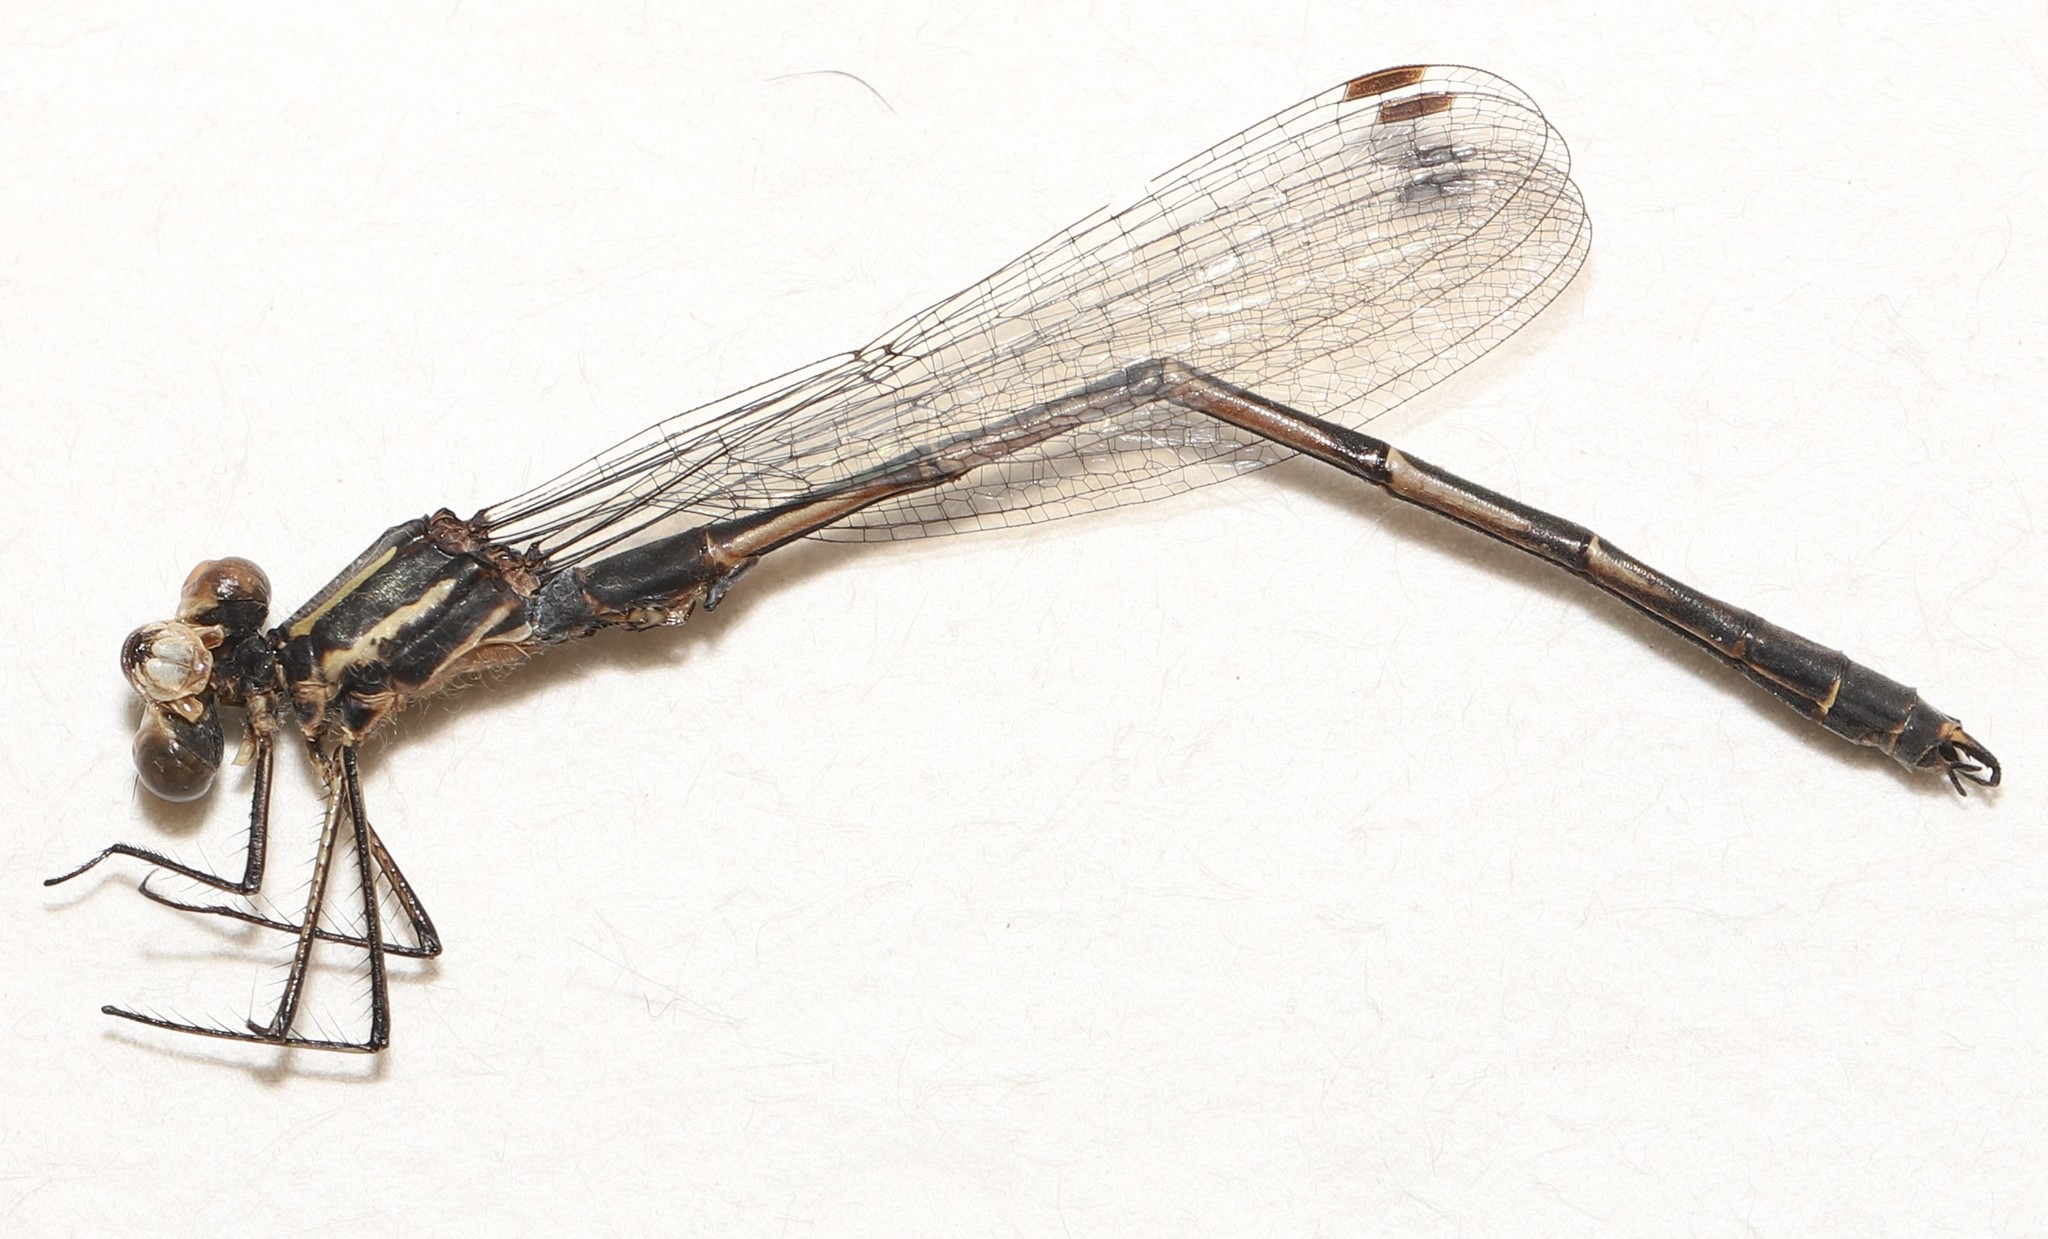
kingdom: Animalia
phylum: Arthropoda
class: Insecta
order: Odonata
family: Lestidae
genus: Lestes
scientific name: Lestes disjunctus
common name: Northern spreadwing
